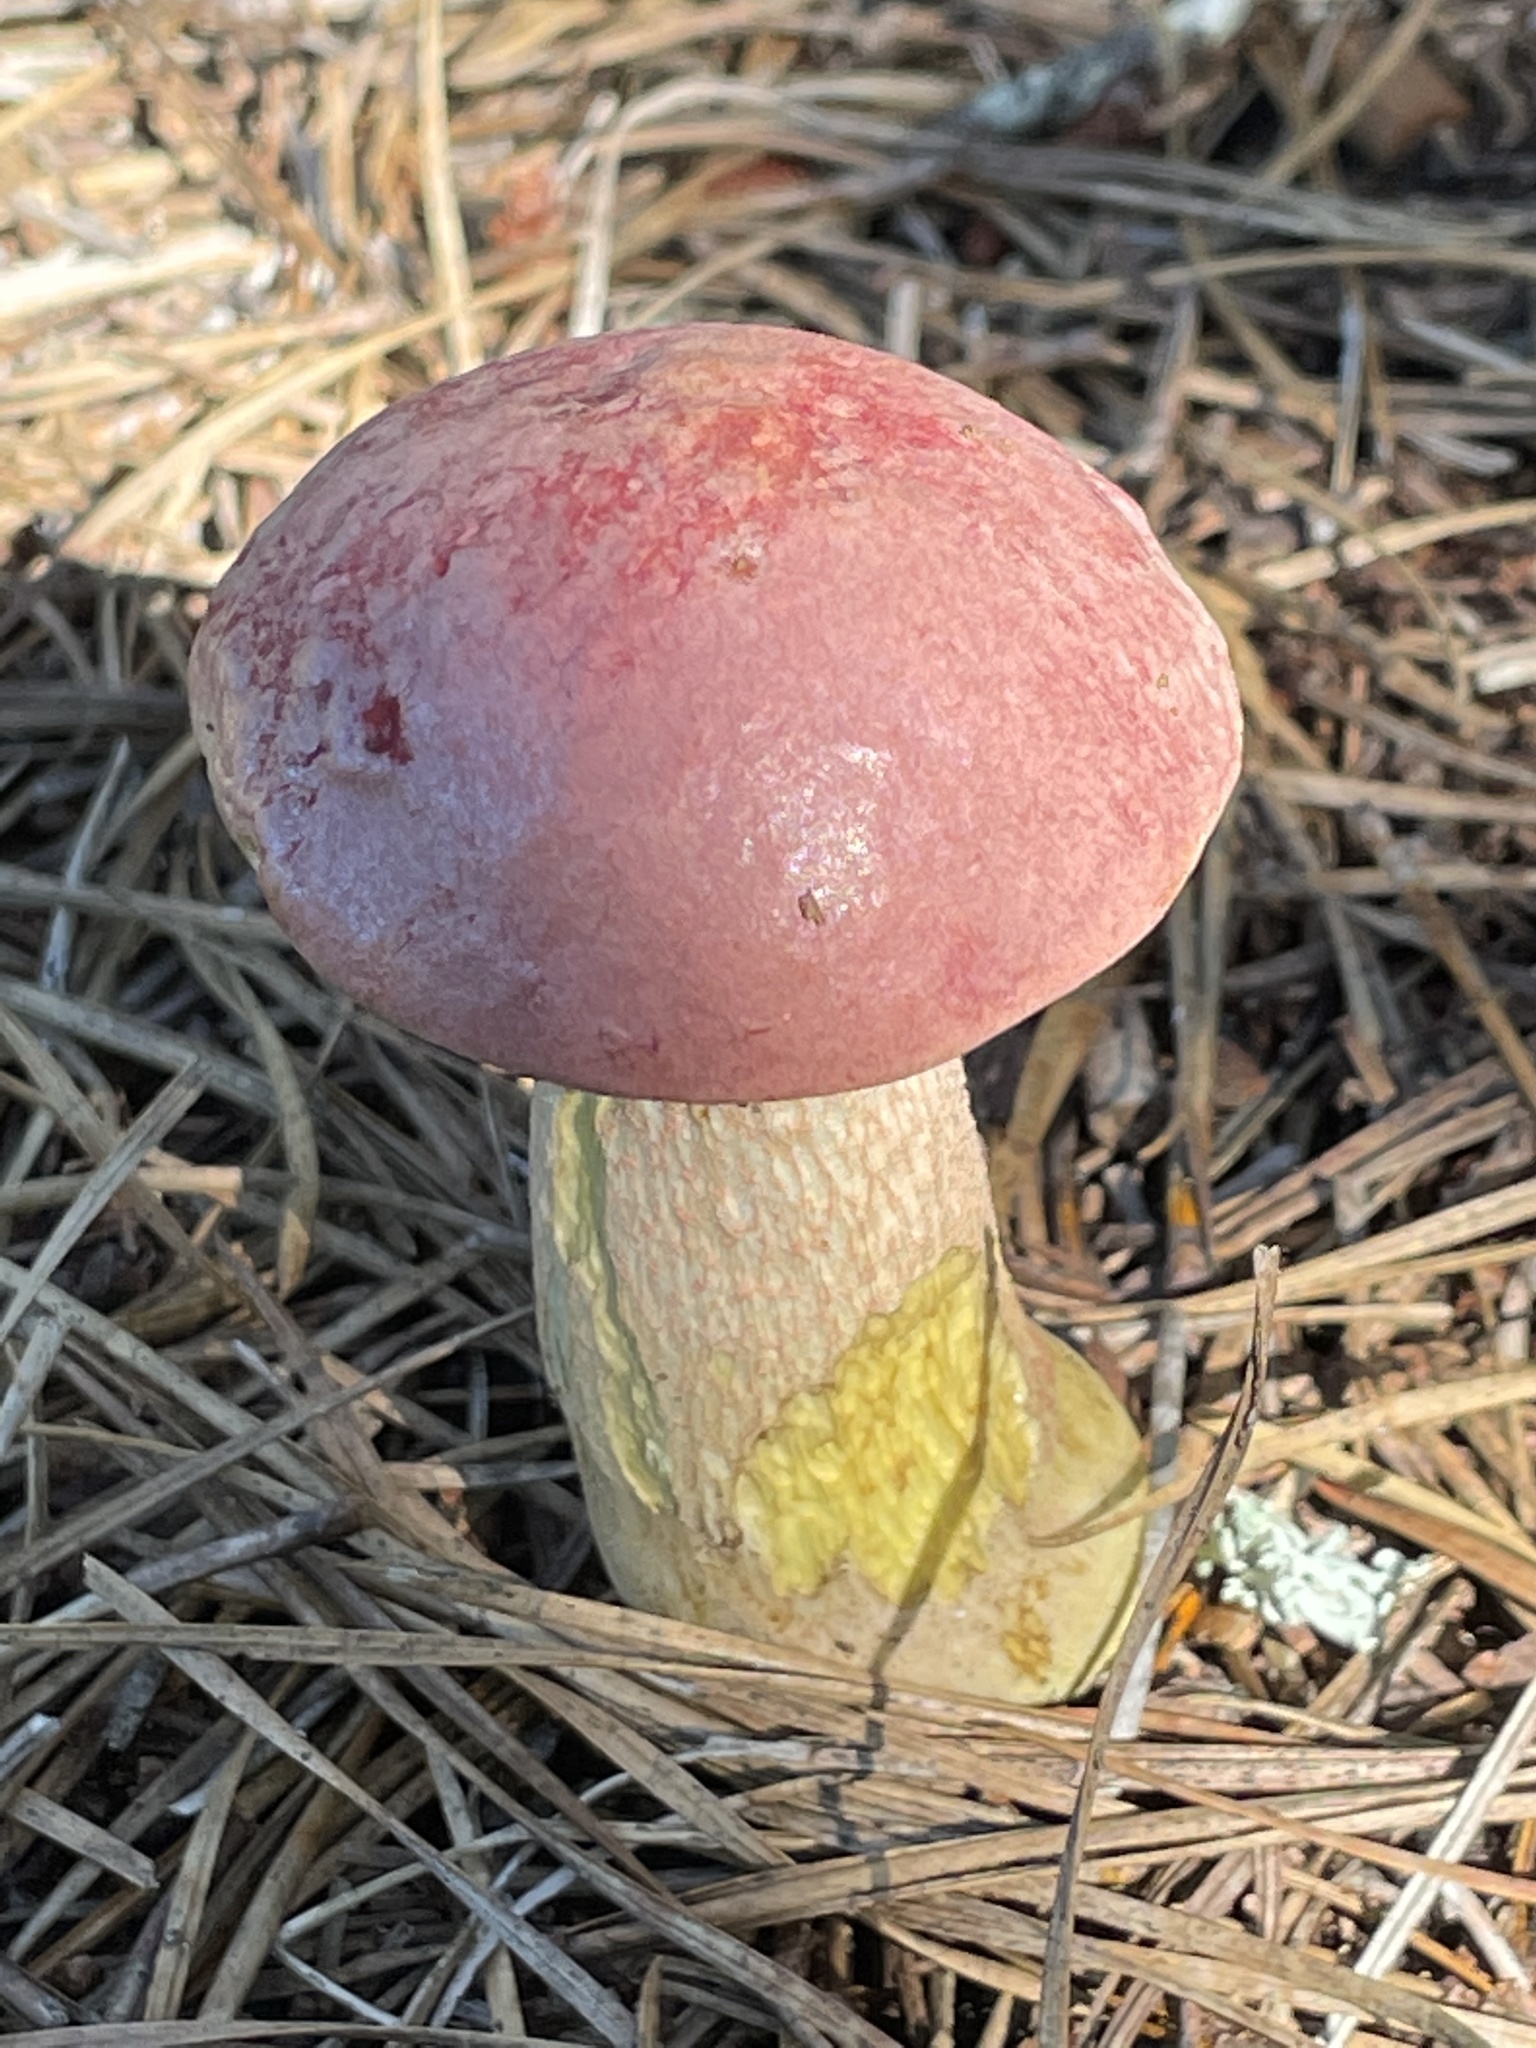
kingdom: Fungi
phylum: Basidiomycota
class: Agaricomycetes
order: Boletales
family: Boletaceae
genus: Harrya
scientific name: Harrya chromipes
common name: Chrome-footed bolete
